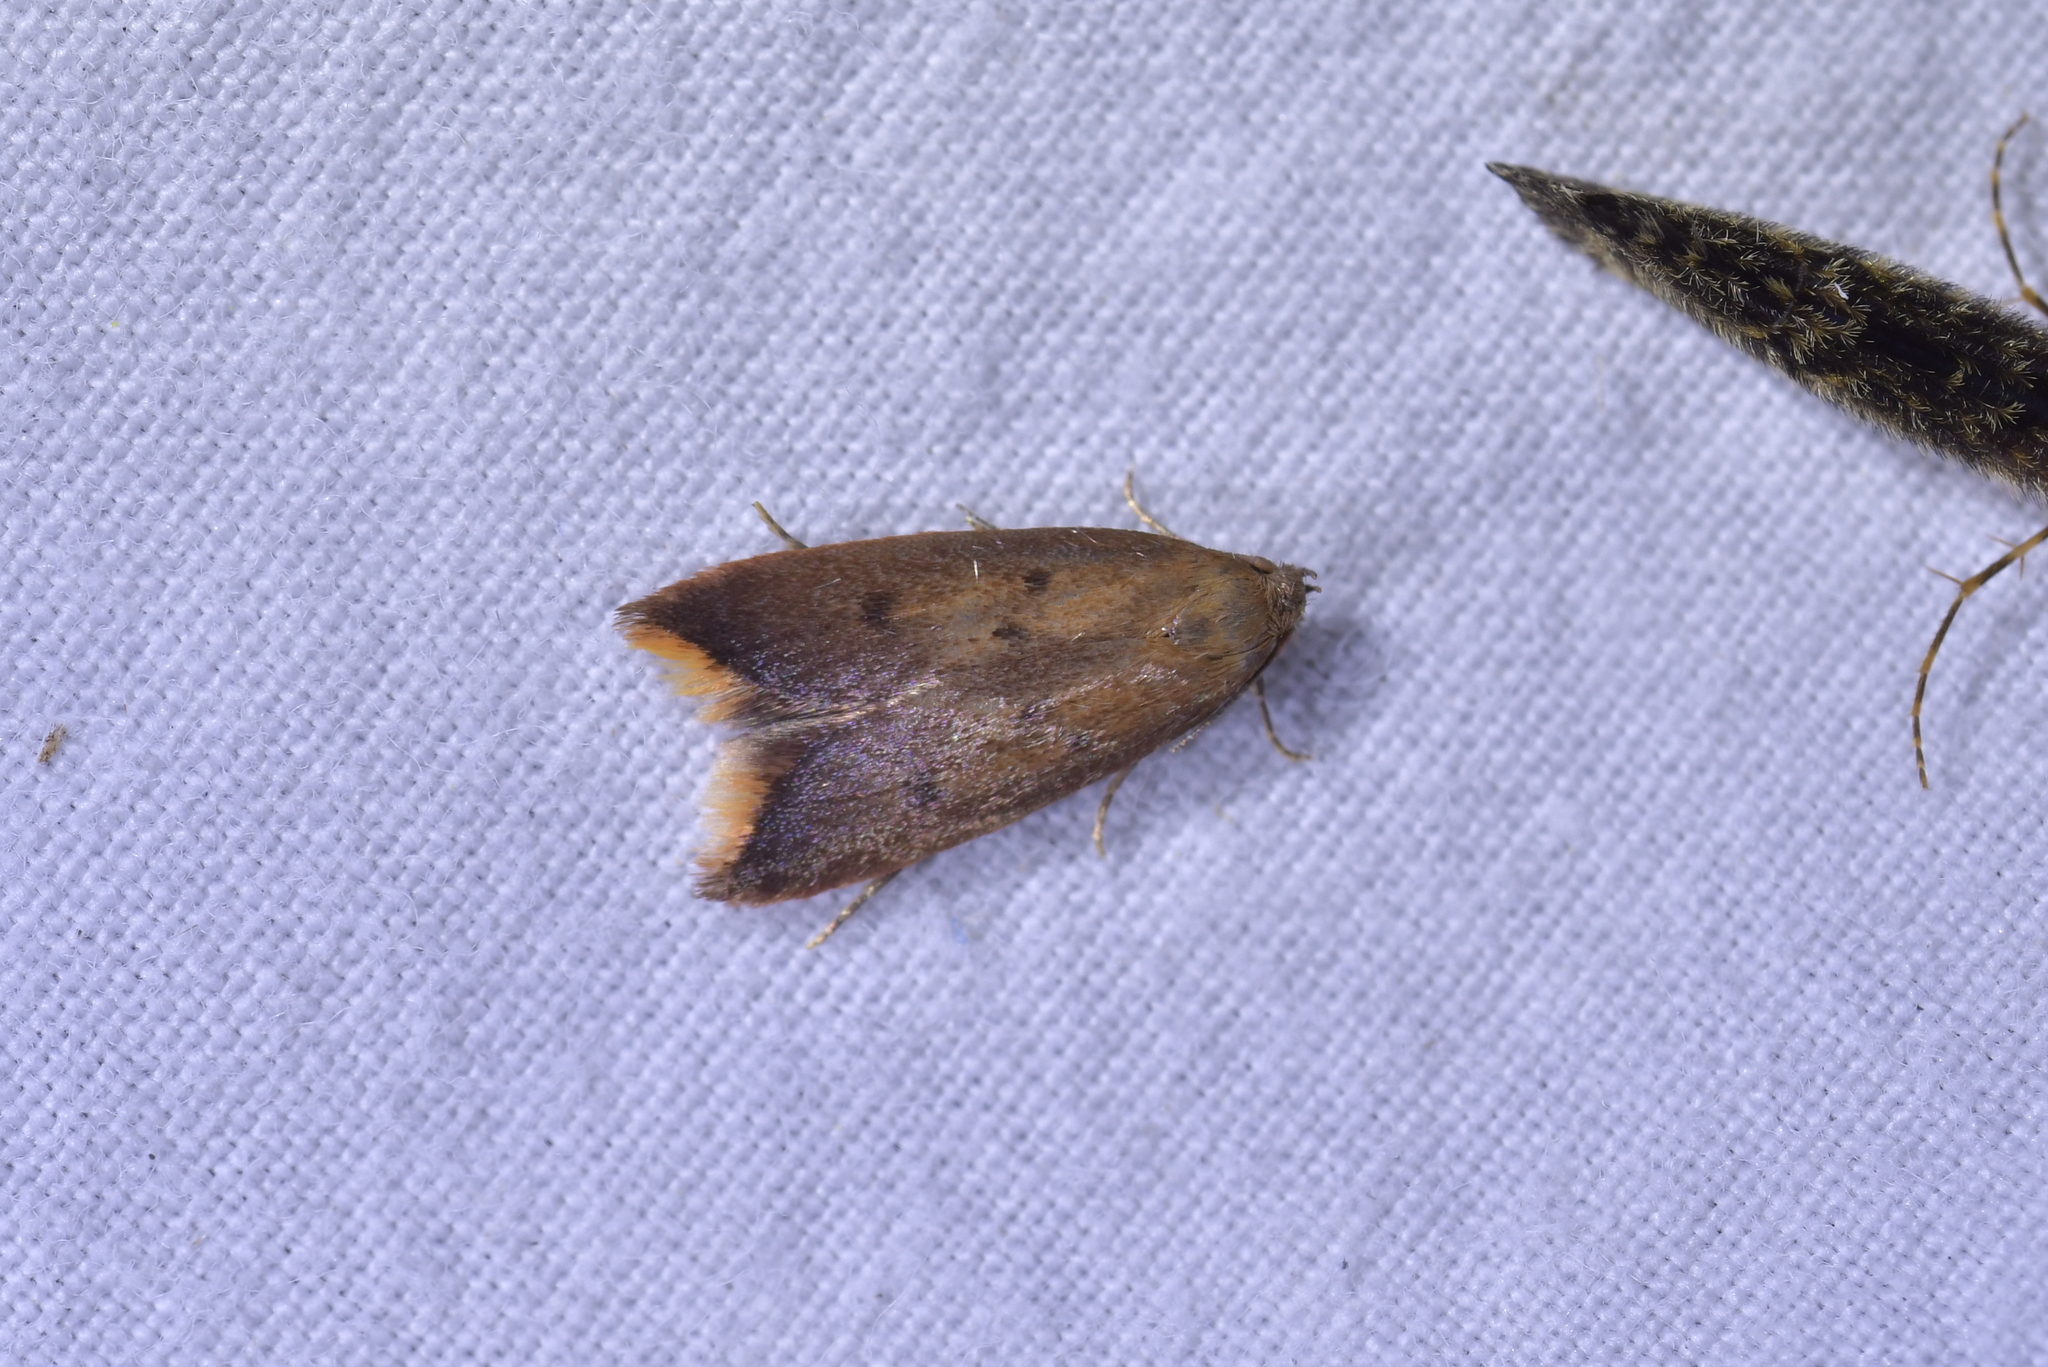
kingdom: Animalia
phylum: Arthropoda
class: Insecta
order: Lepidoptera
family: Oecophoridae
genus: Tachystola
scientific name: Tachystola acroxantha
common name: Ruddy streak
